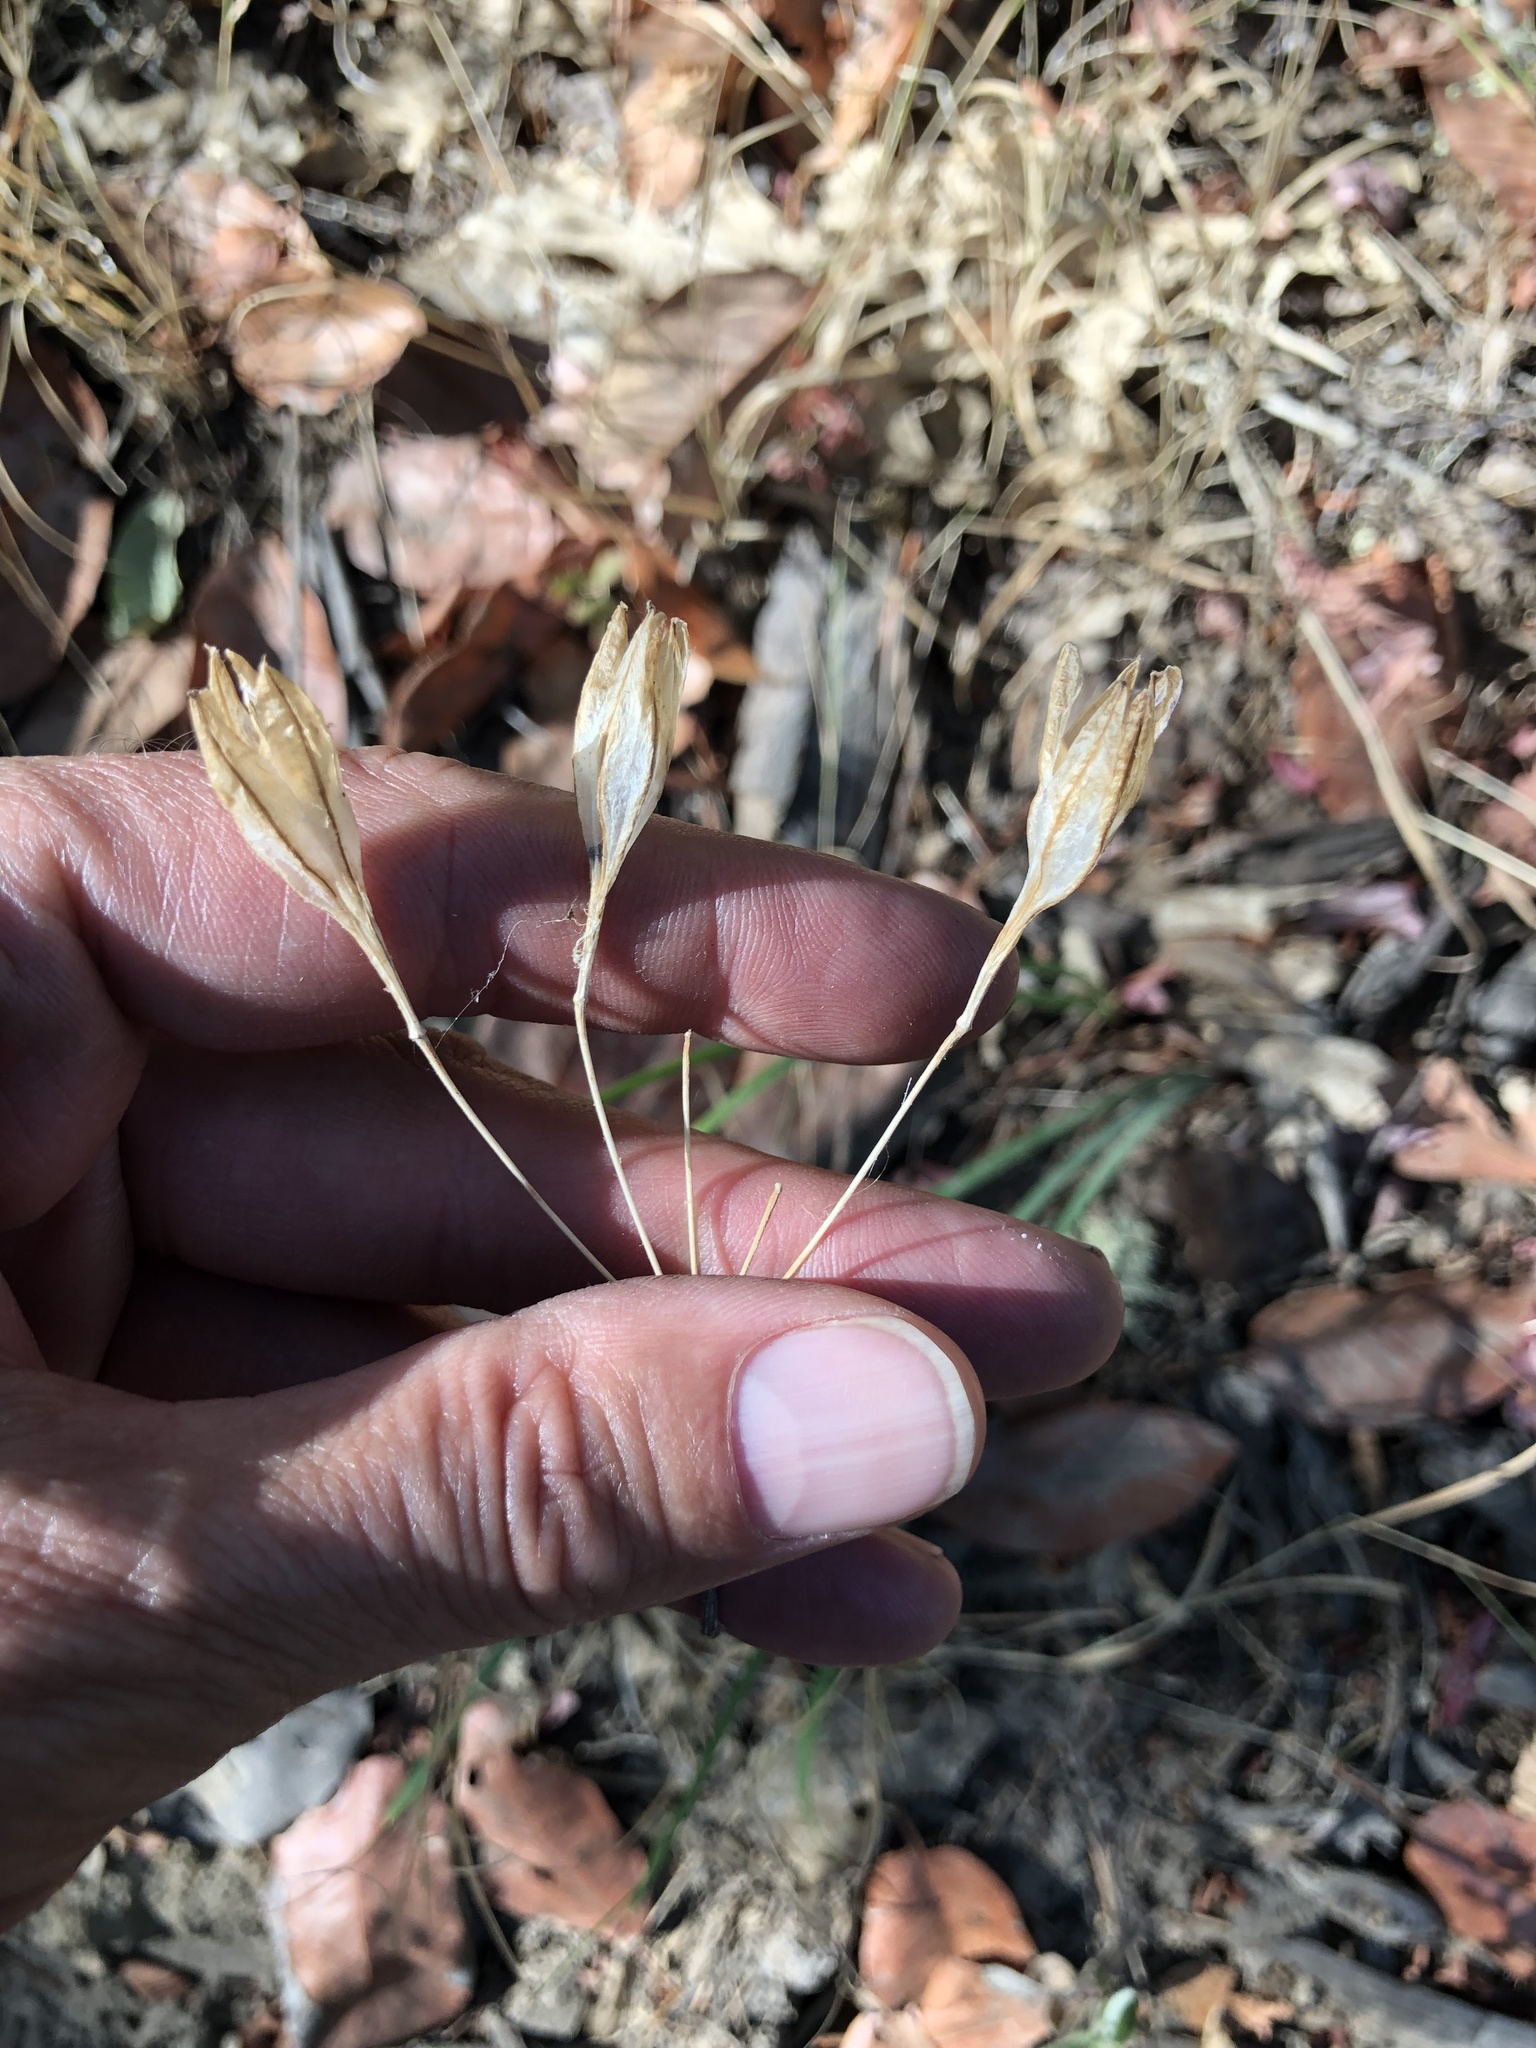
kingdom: Plantae
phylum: Tracheophyta
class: Liliopsida
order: Asparagales
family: Asparagaceae
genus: Triteleia
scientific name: Triteleia laxa
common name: Triplet-lily
